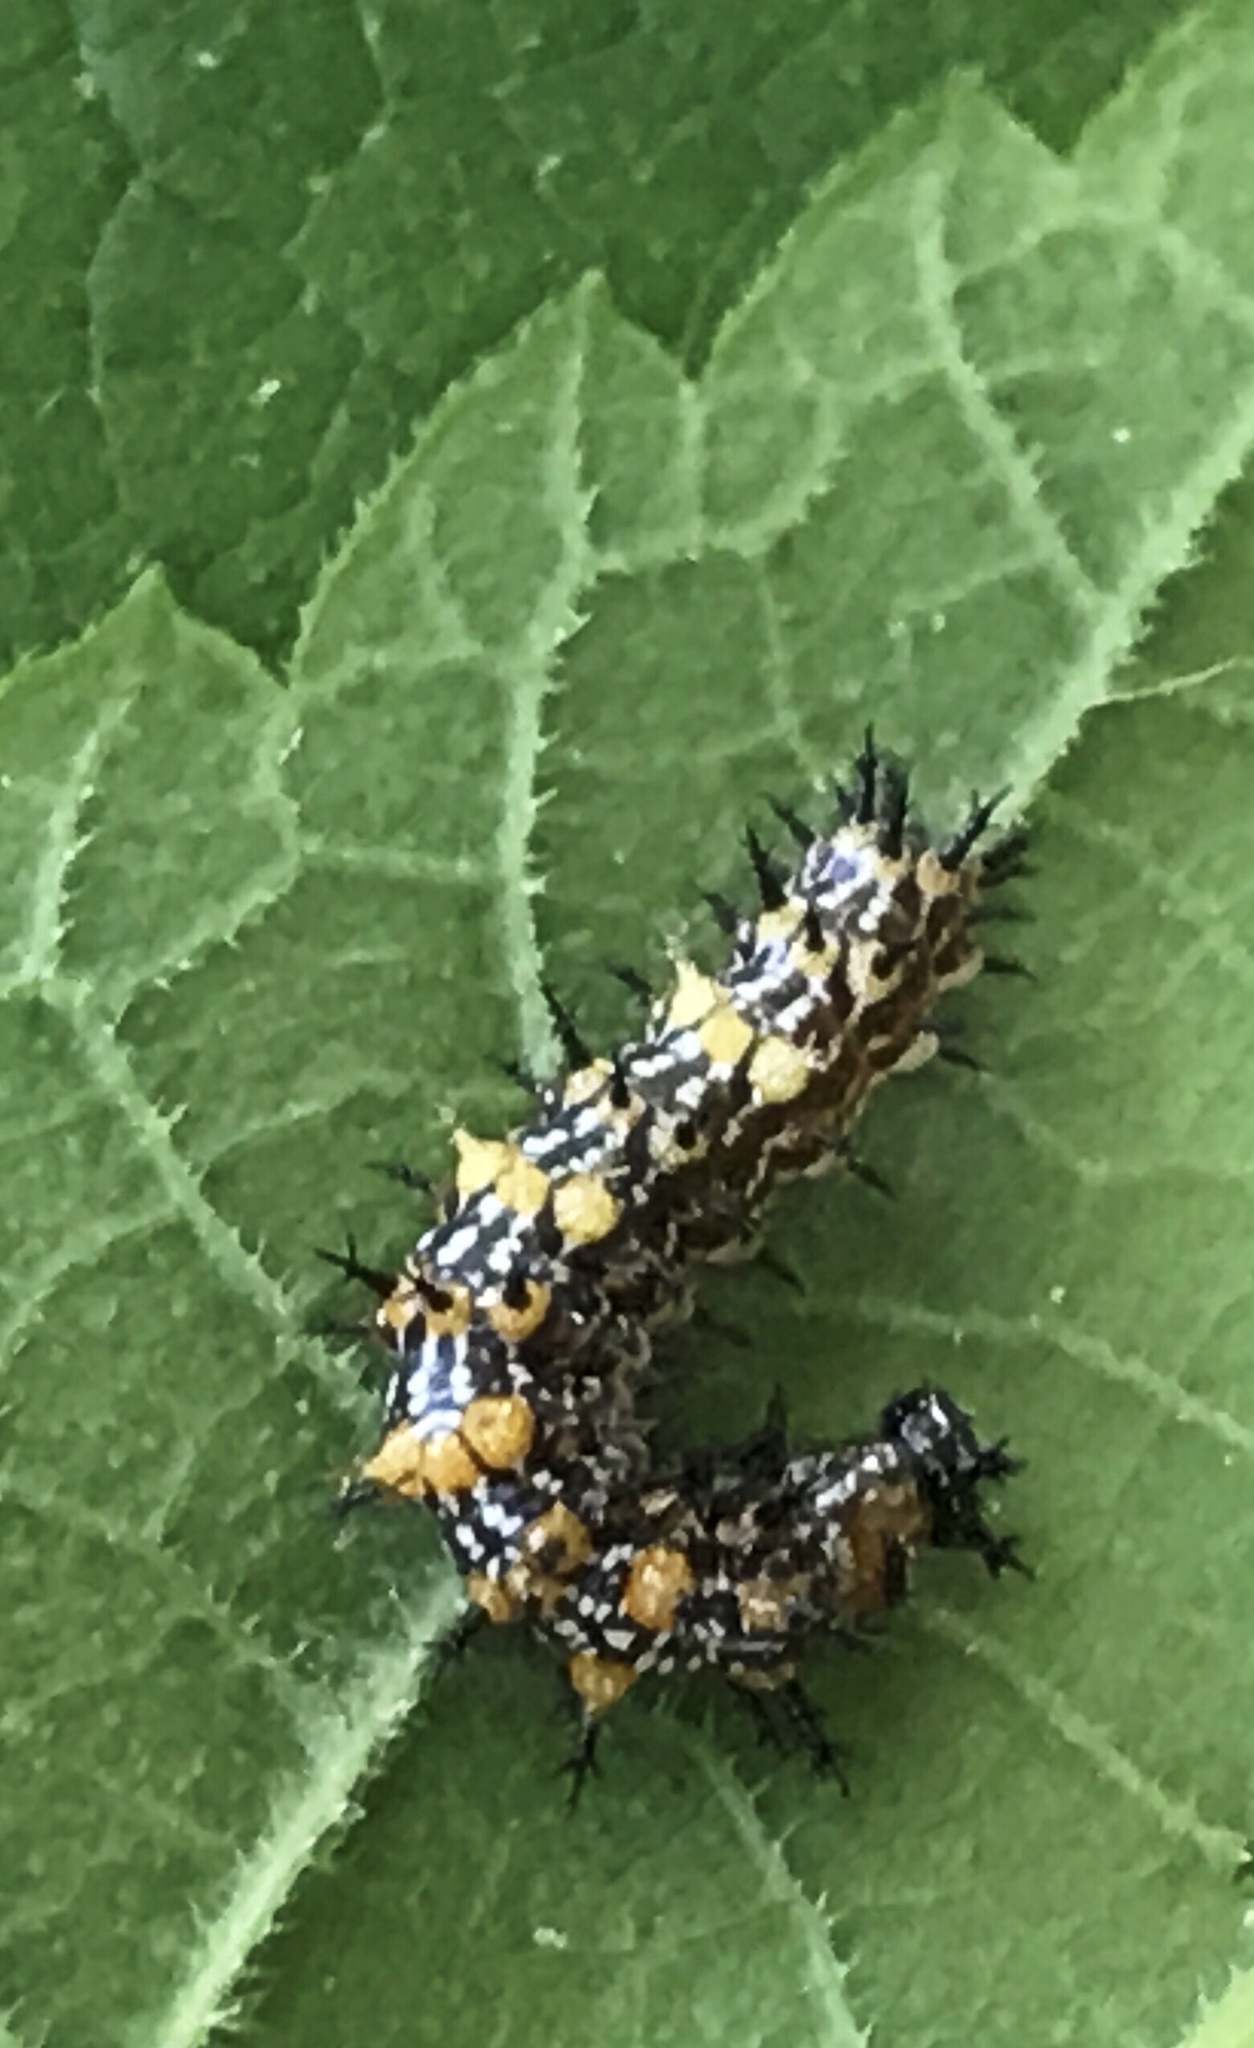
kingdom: Animalia
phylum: Arthropoda
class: Insecta
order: Lepidoptera
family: Nymphalidae
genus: Polygonia
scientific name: Polygonia interrogationis
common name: Question mark
